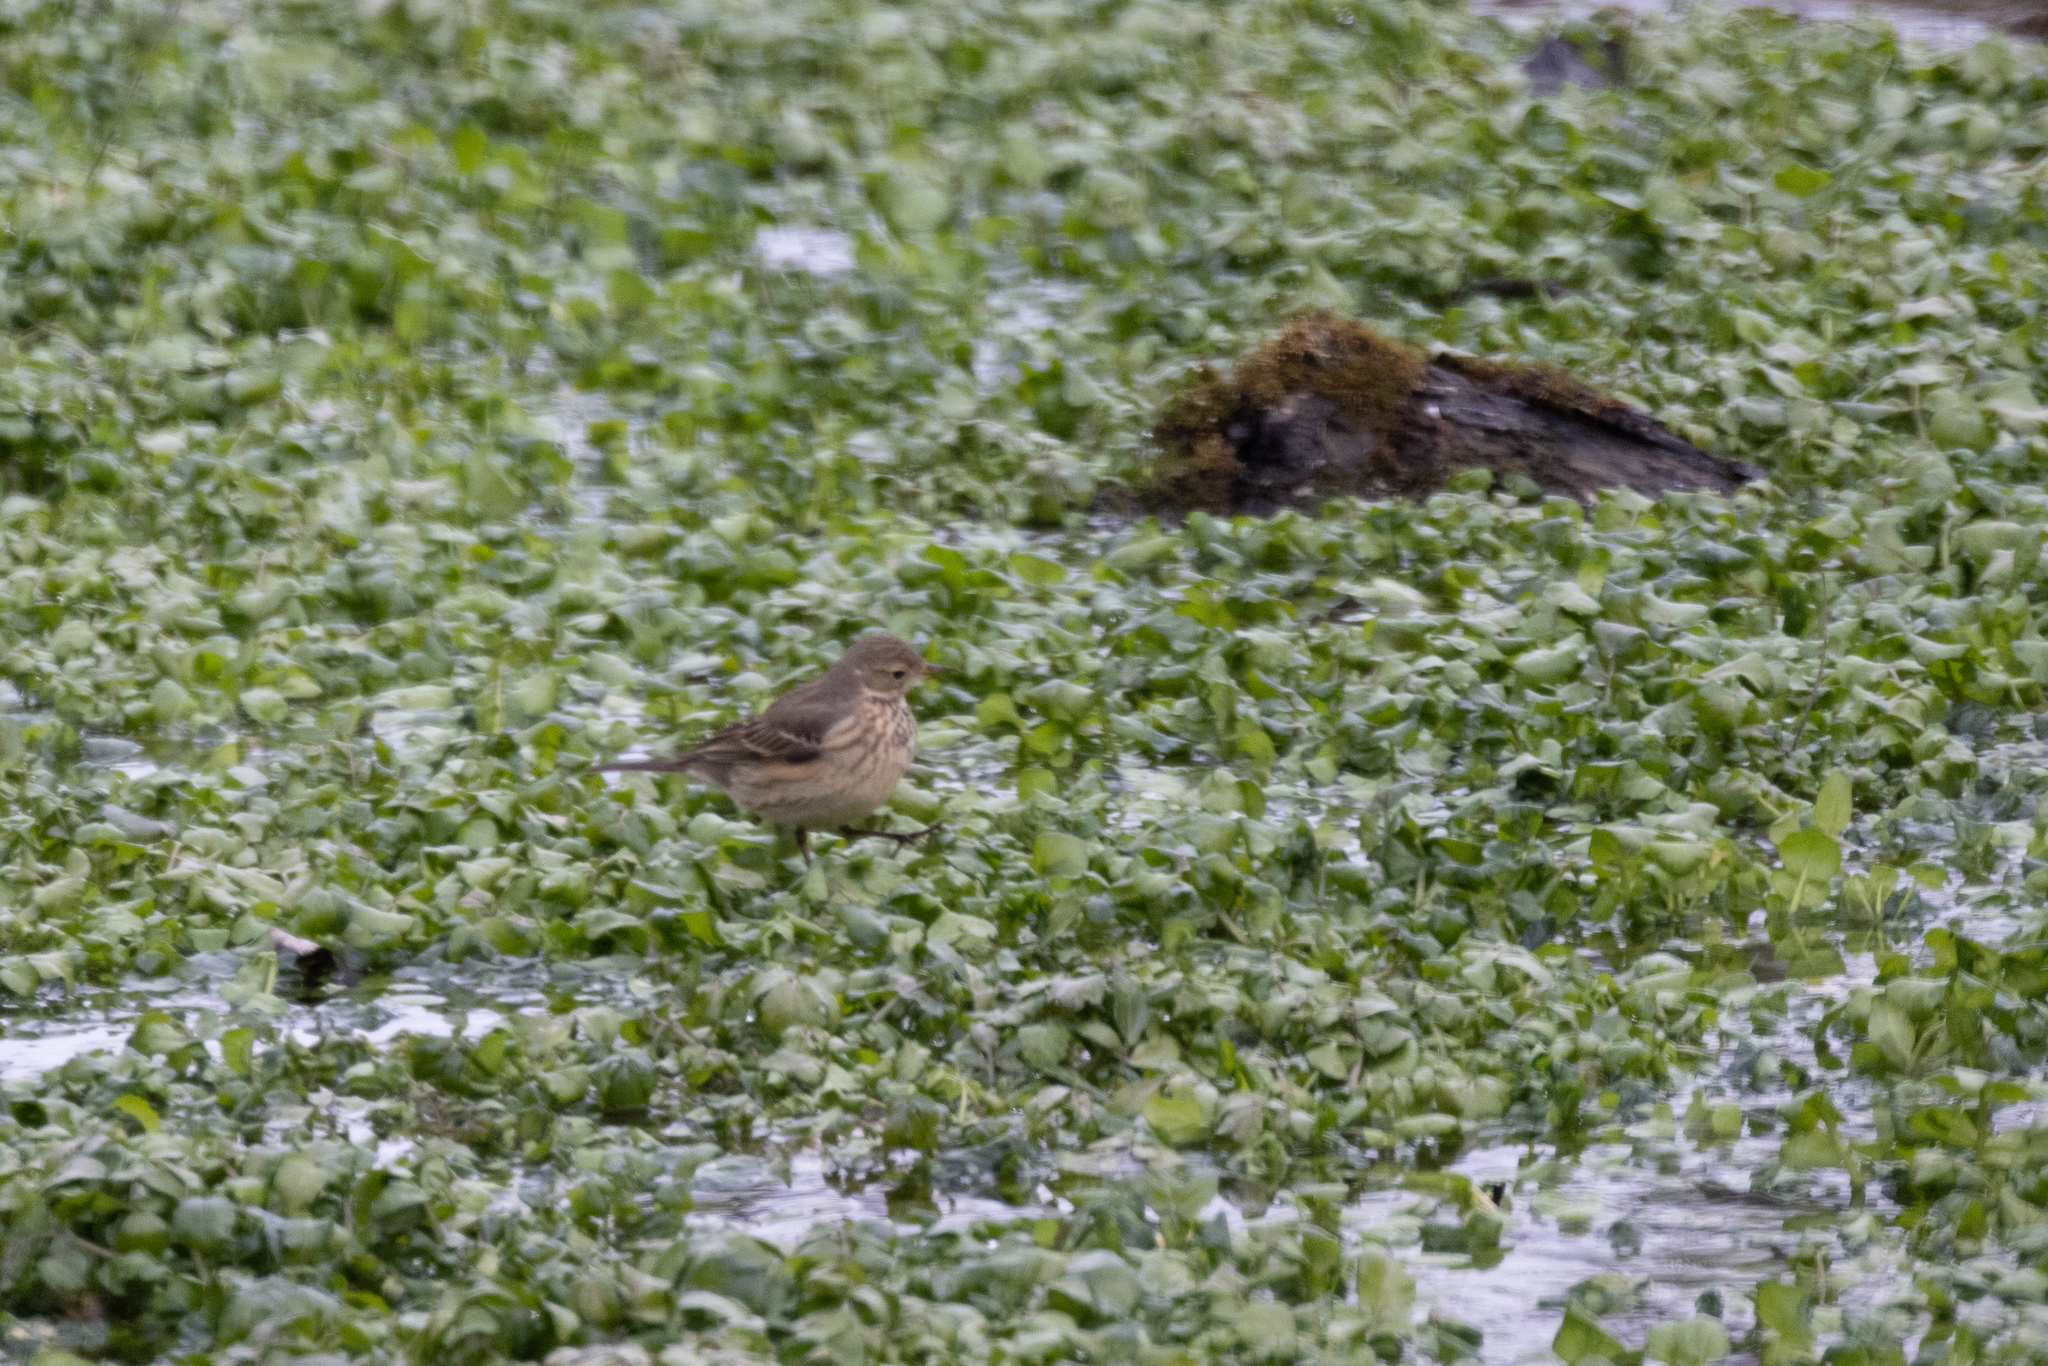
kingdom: Animalia
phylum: Chordata
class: Aves
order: Passeriformes
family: Motacillidae
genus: Anthus
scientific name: Anthus rubescens
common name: Buff-bellied pipit
